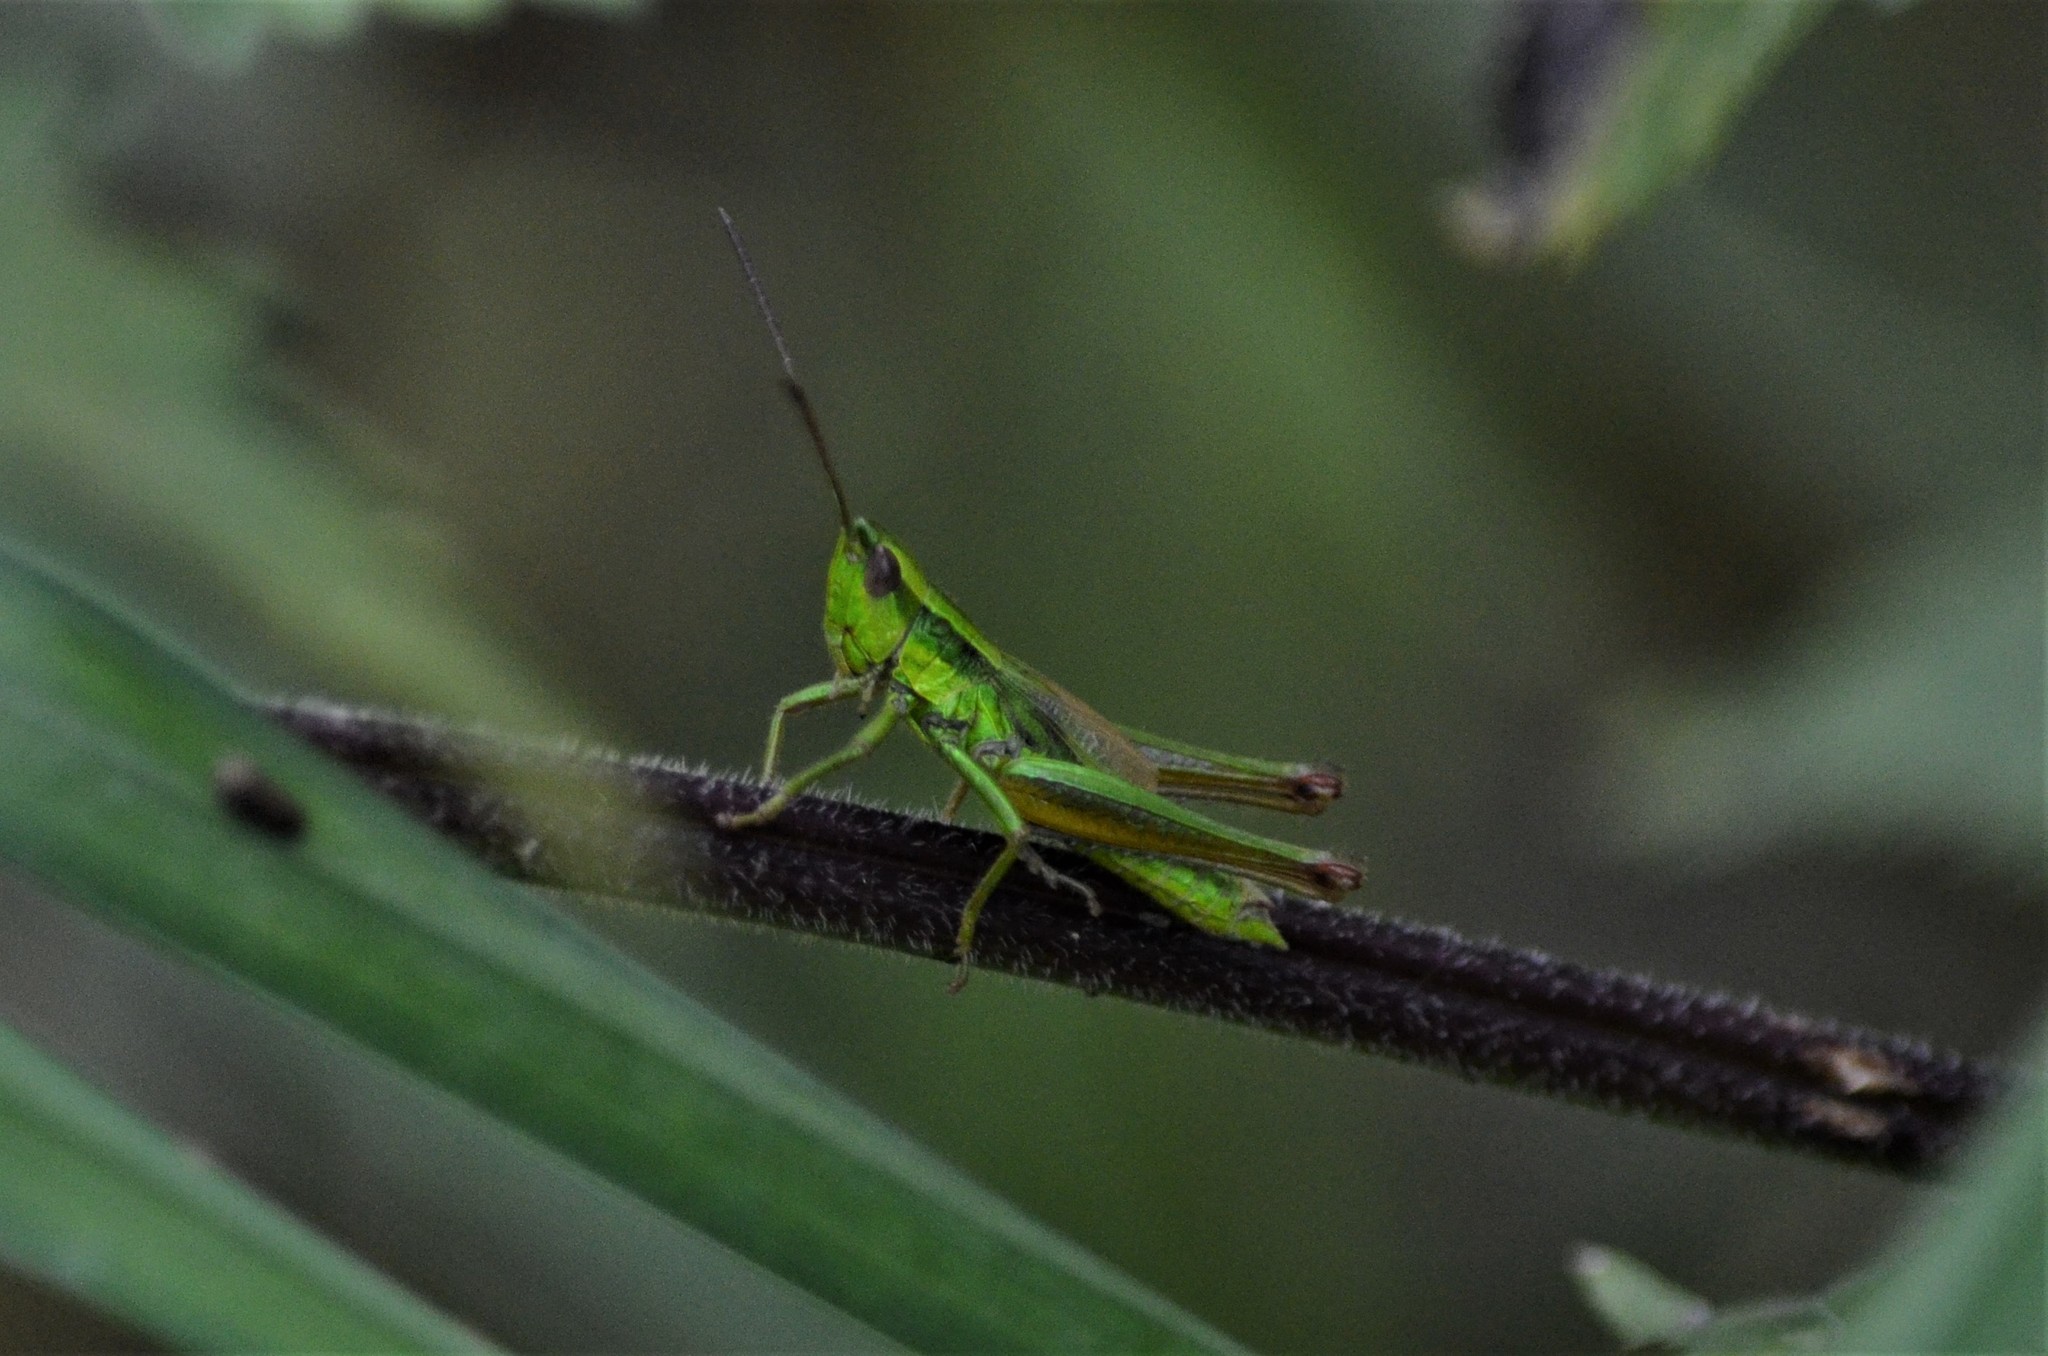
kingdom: Animalia
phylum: Arthropoda
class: Insecta
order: Orthoptera
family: Acrididae
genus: Euthystira
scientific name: Euthystira brachyptera
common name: Small gold grasshopper
